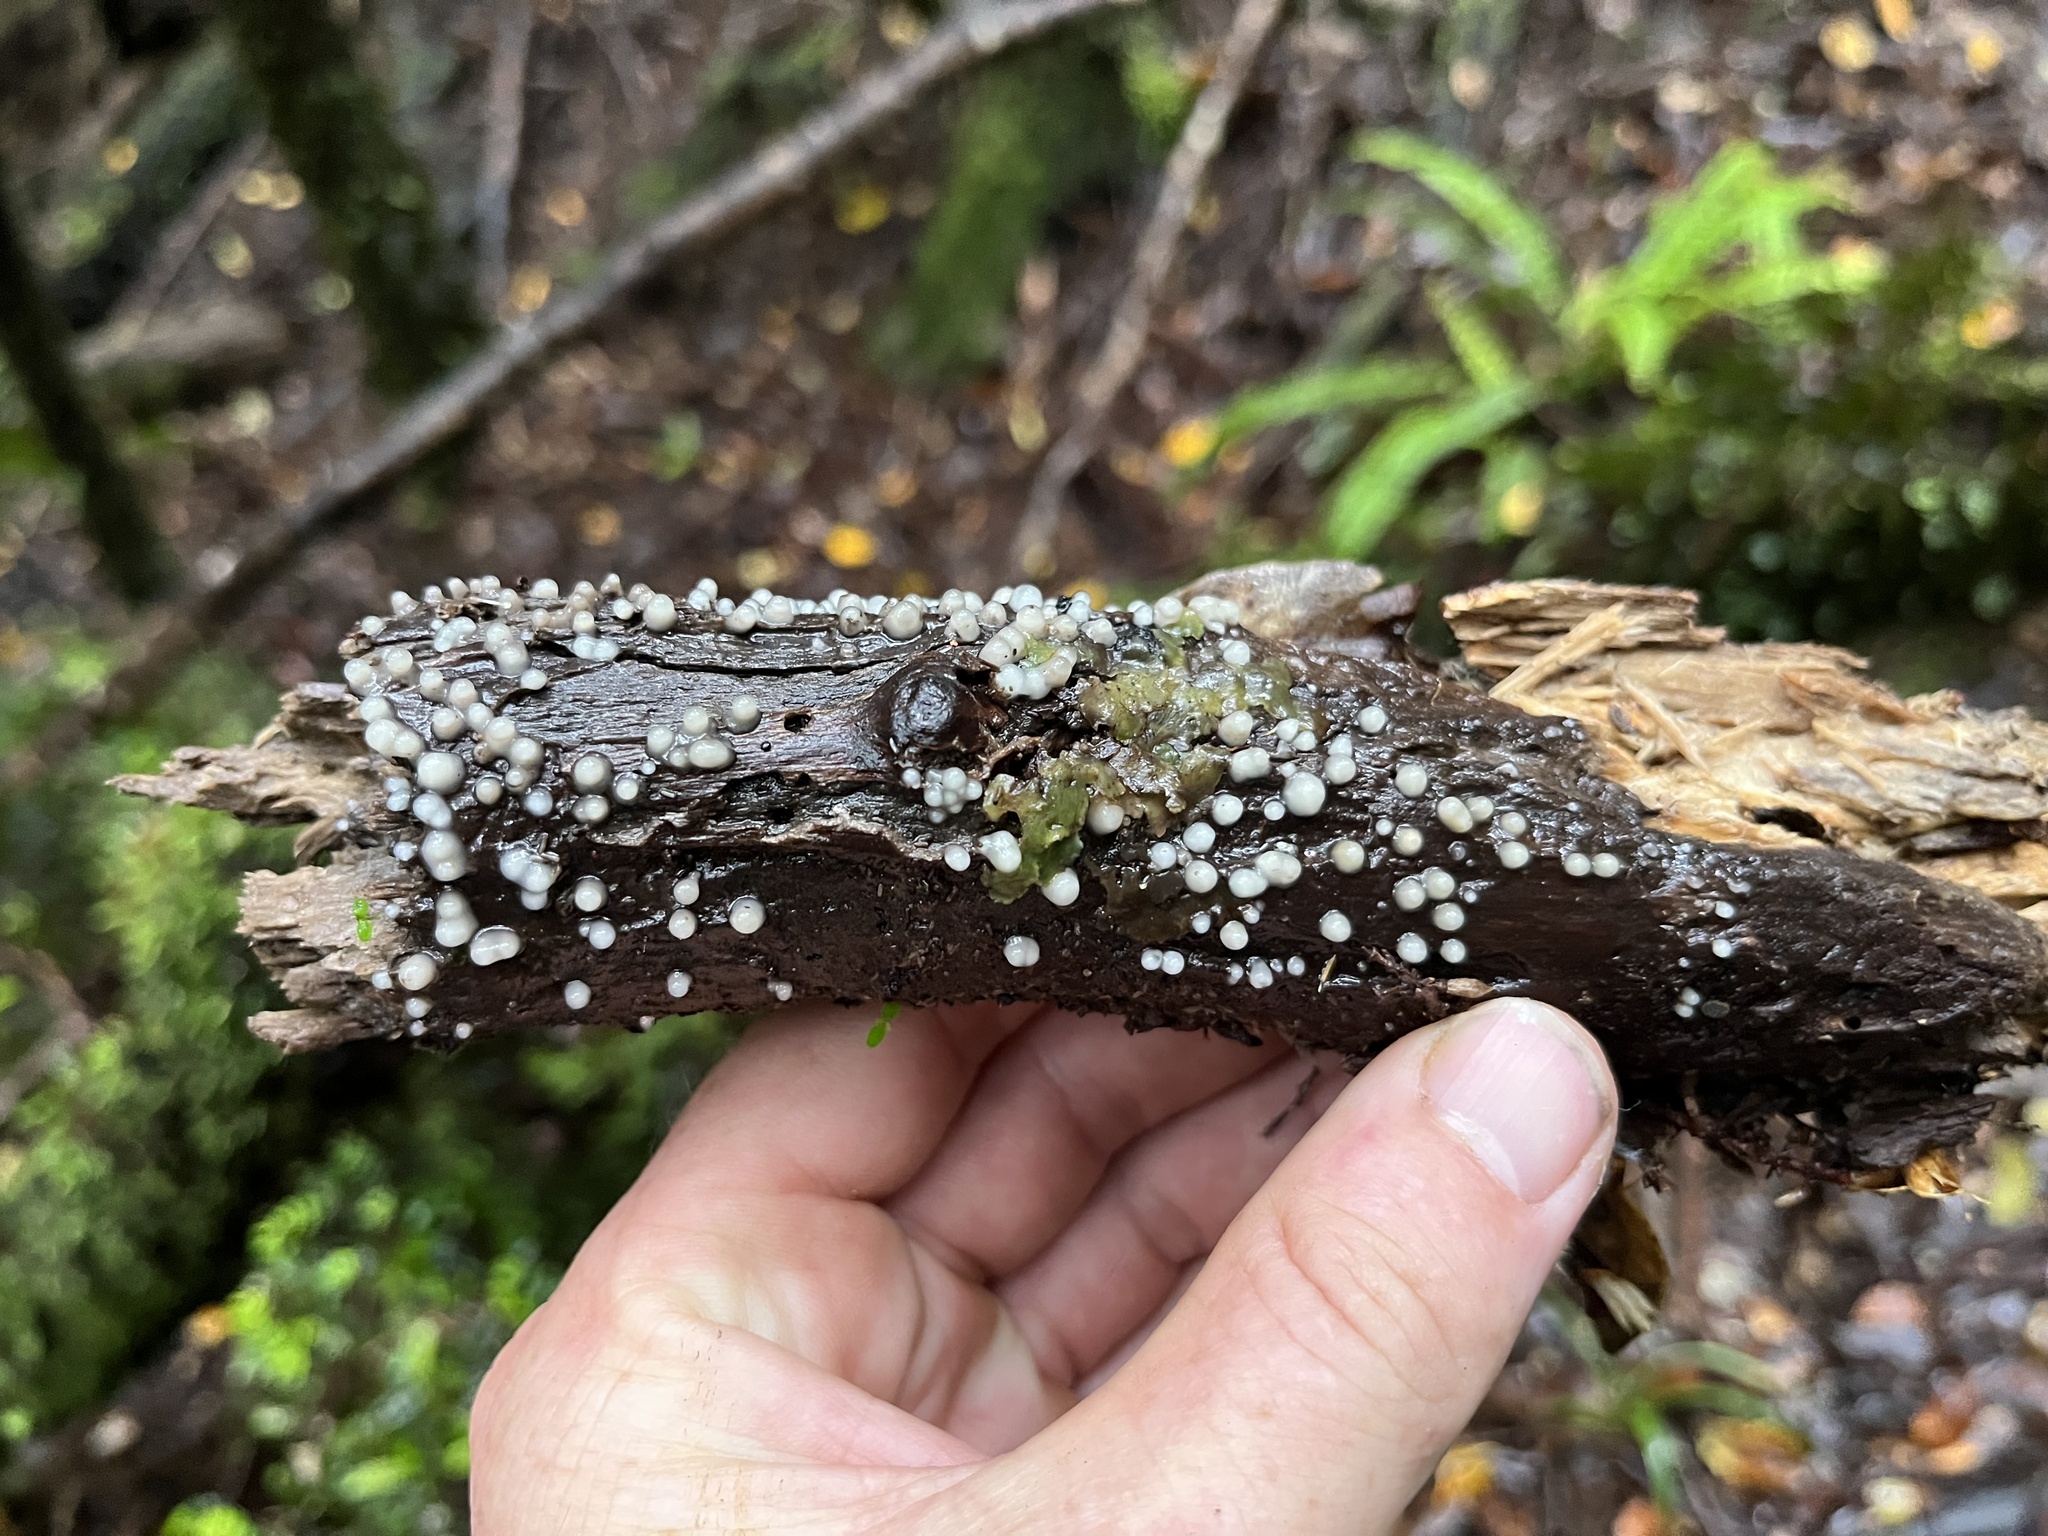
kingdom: Fungi
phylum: Basidiomycota
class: Atractiellomycetes
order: Atractiellales
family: Phleogenaceae
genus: Helicogloea
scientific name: Helicogloea compressa
